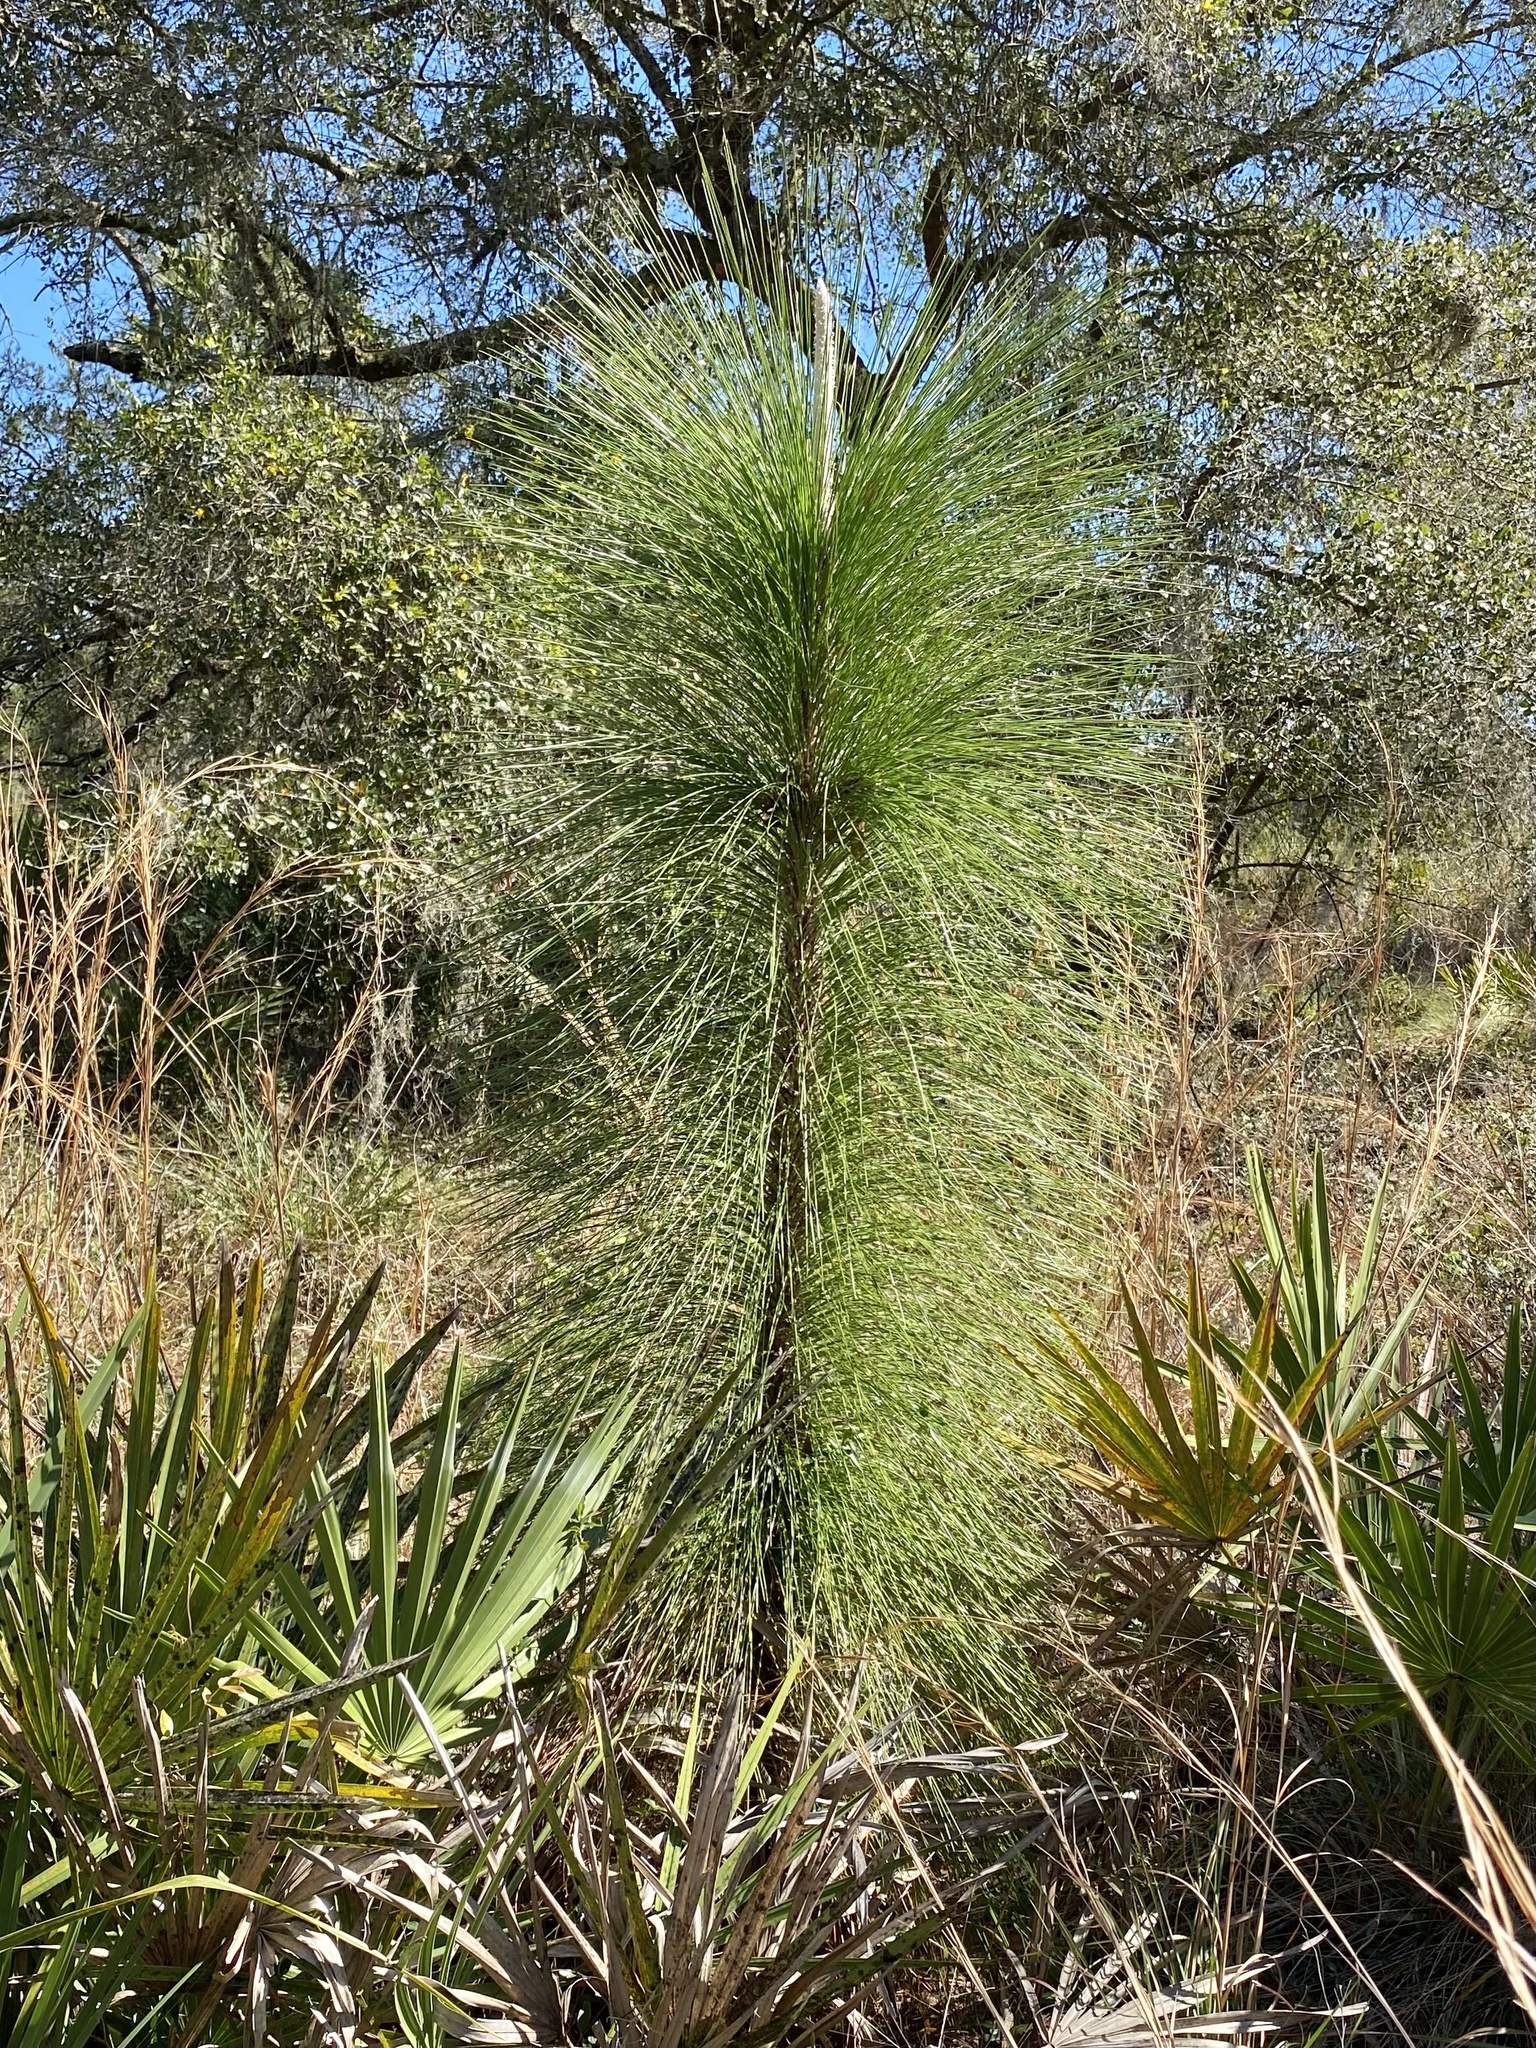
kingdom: Plantae
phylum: Tracheophyta
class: Pinopsida
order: Pinales
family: Pinaceae
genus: Pinus
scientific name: Pinus palustris
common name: Longleaf pine
